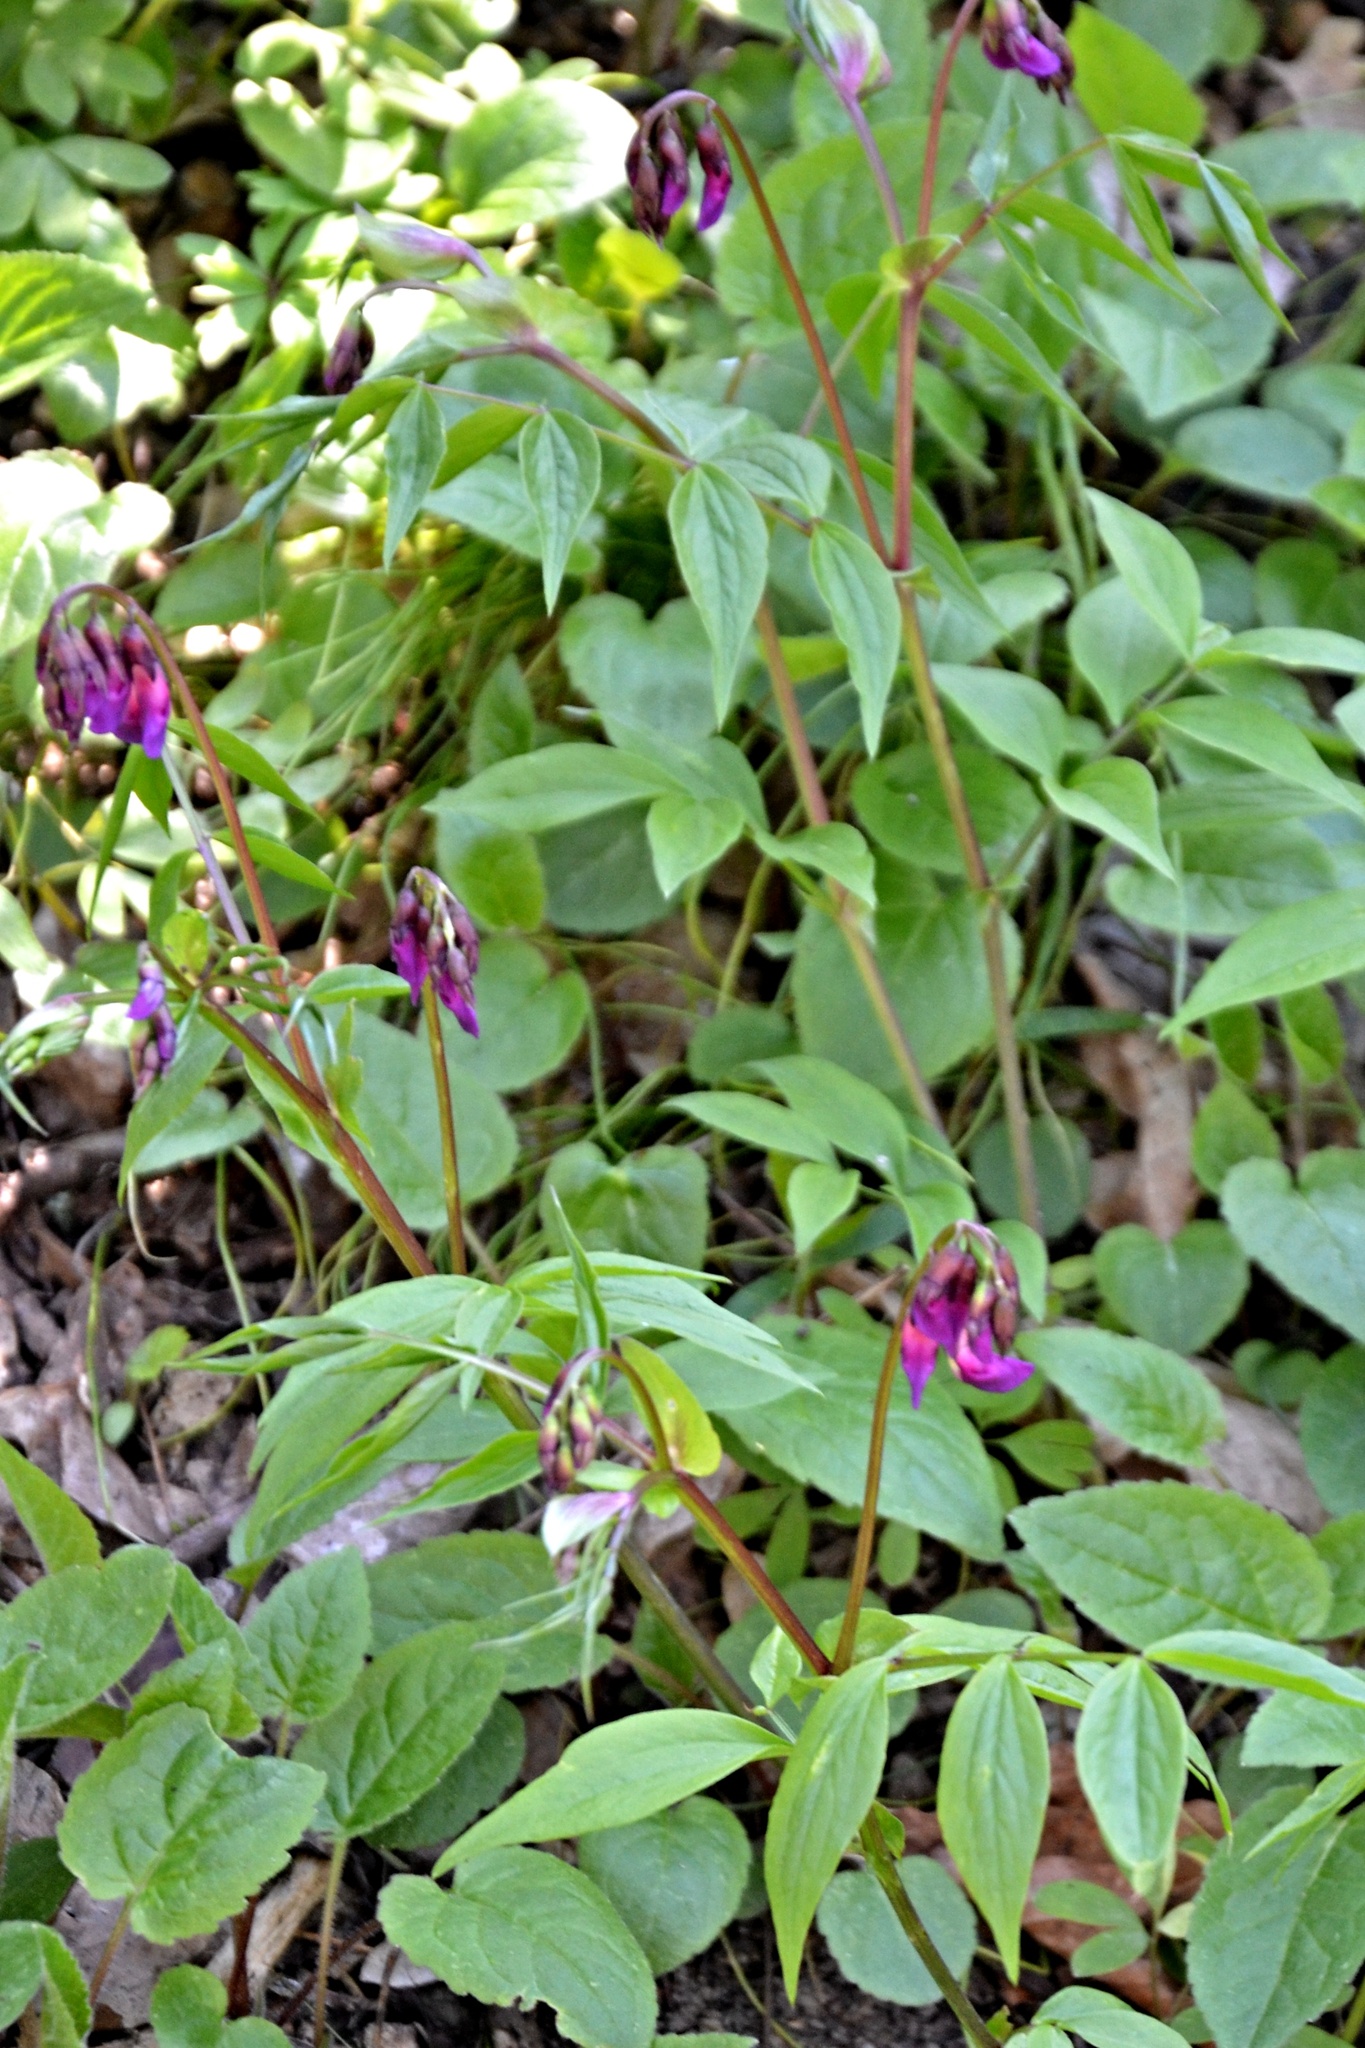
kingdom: Plantae
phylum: Tracheophyta
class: Magnoliopsida
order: Fabales
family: Fabaceae
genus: Lathyrus
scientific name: Lathyrus vernus
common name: Spring pea
